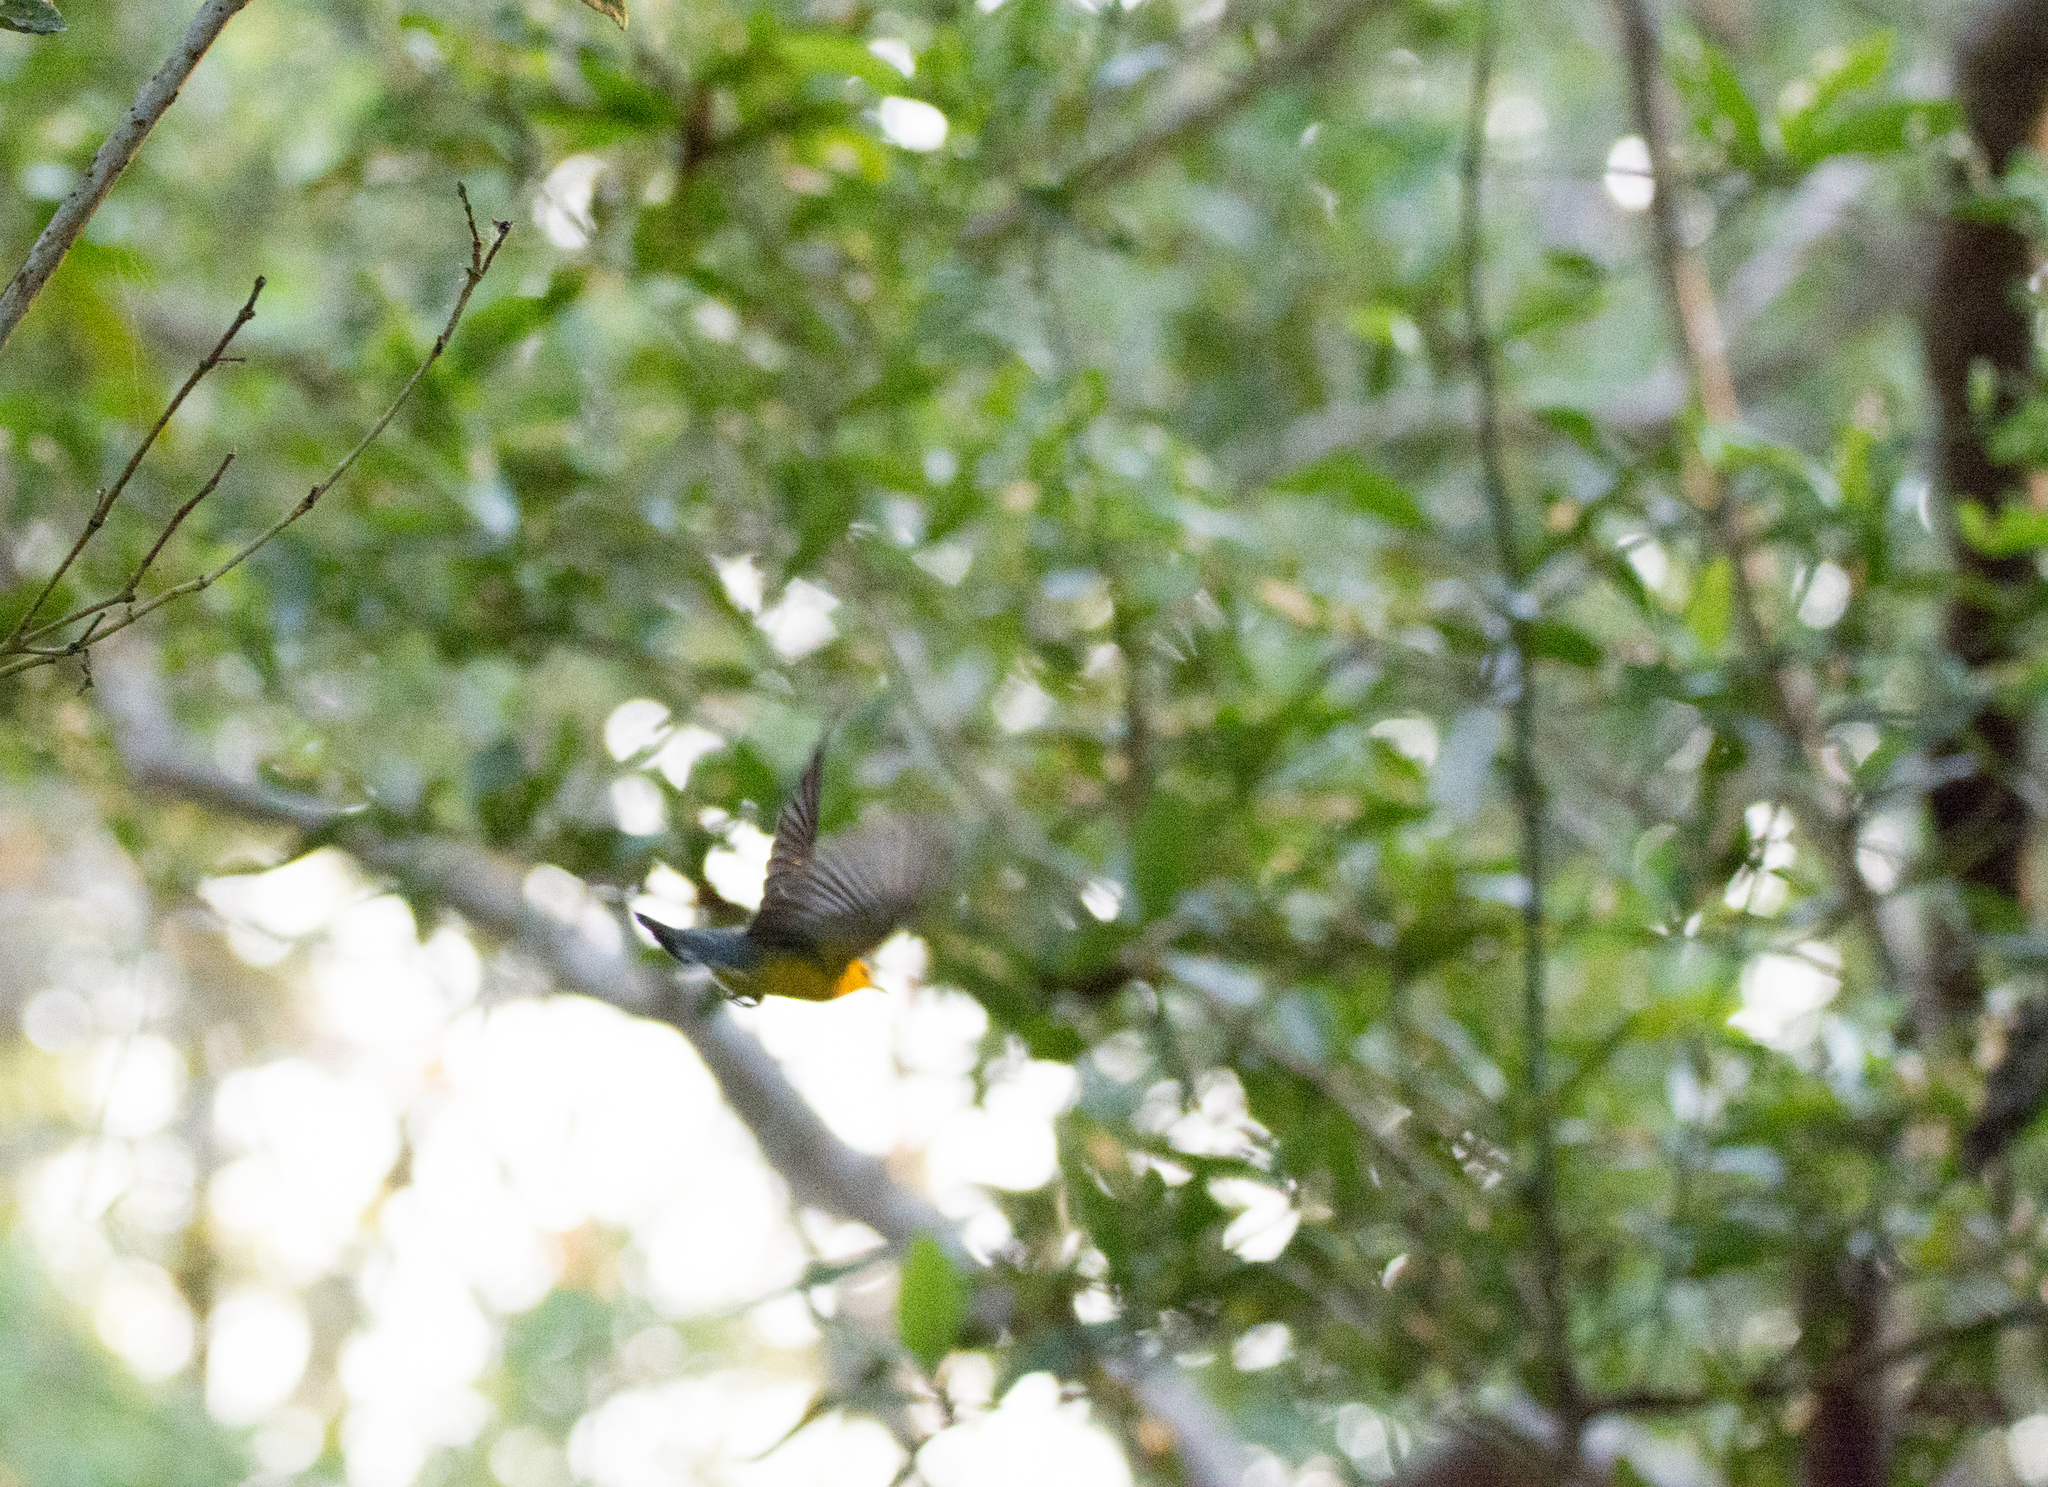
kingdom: Animalia
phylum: Chordata
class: Aves
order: Passeriformes
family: Parulidae
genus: Protonotaria
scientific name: Protonotaria citrea
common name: Prothonotary warbler
